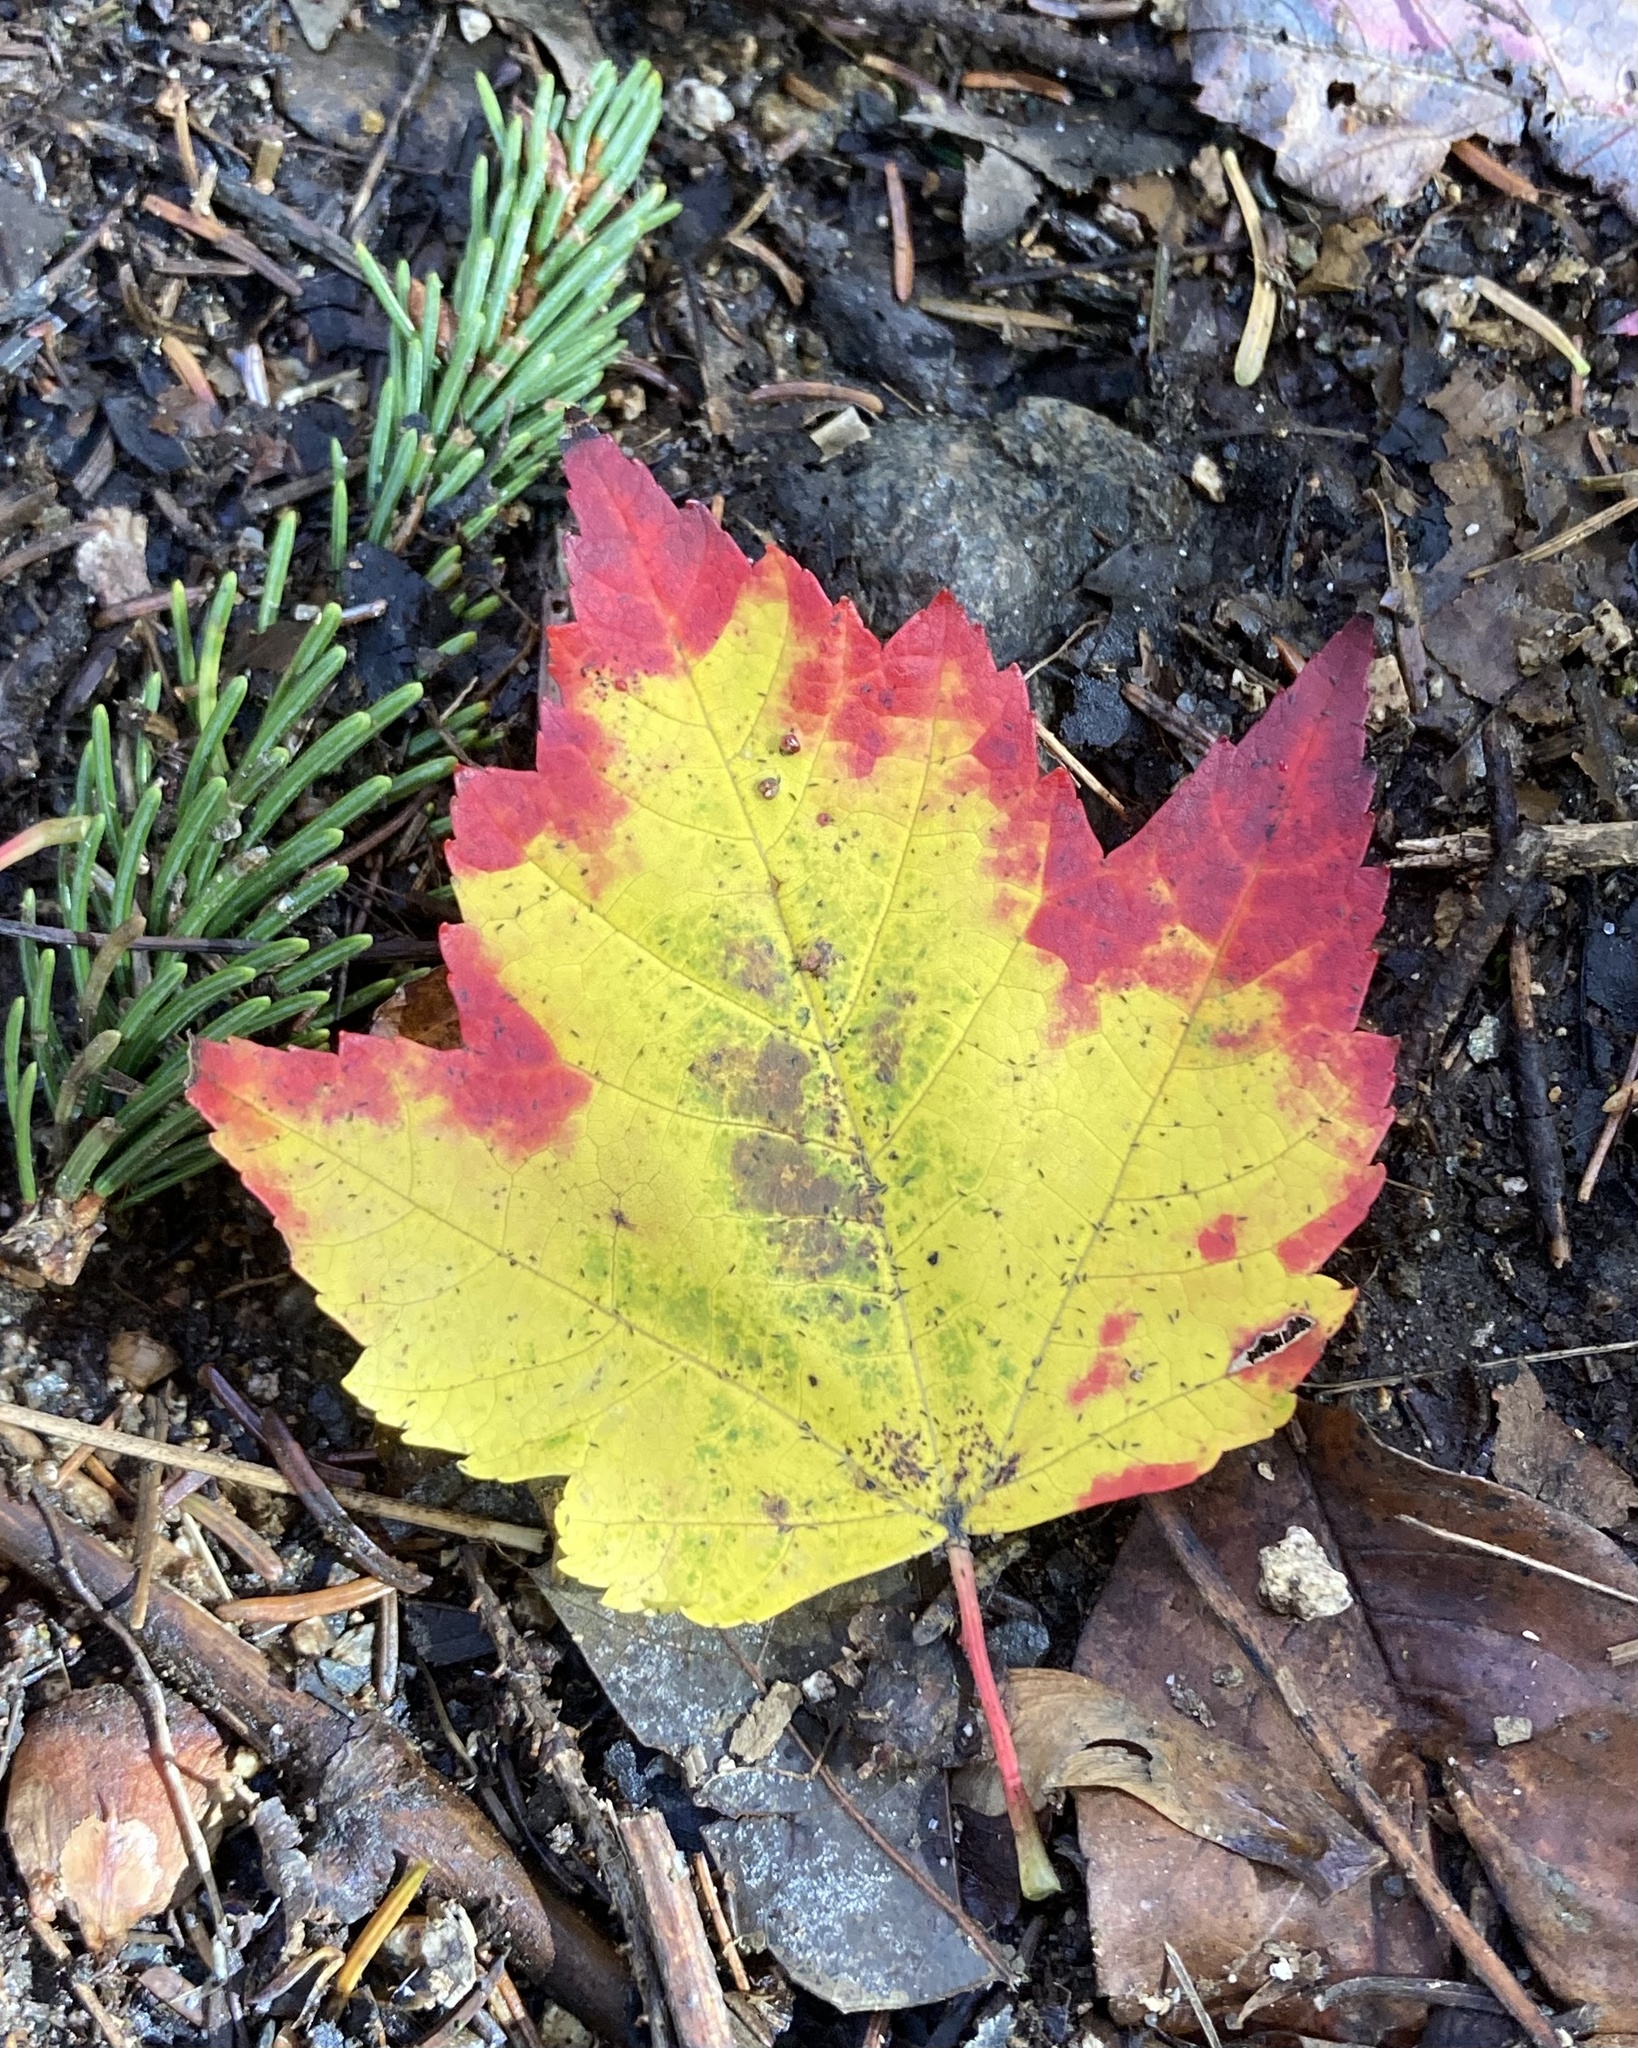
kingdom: Plantae
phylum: Tracheophyta
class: Magnoliopsida
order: Sapindales
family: Sapindaceae
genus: Acer
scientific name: Acer rubrum
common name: Red maple
